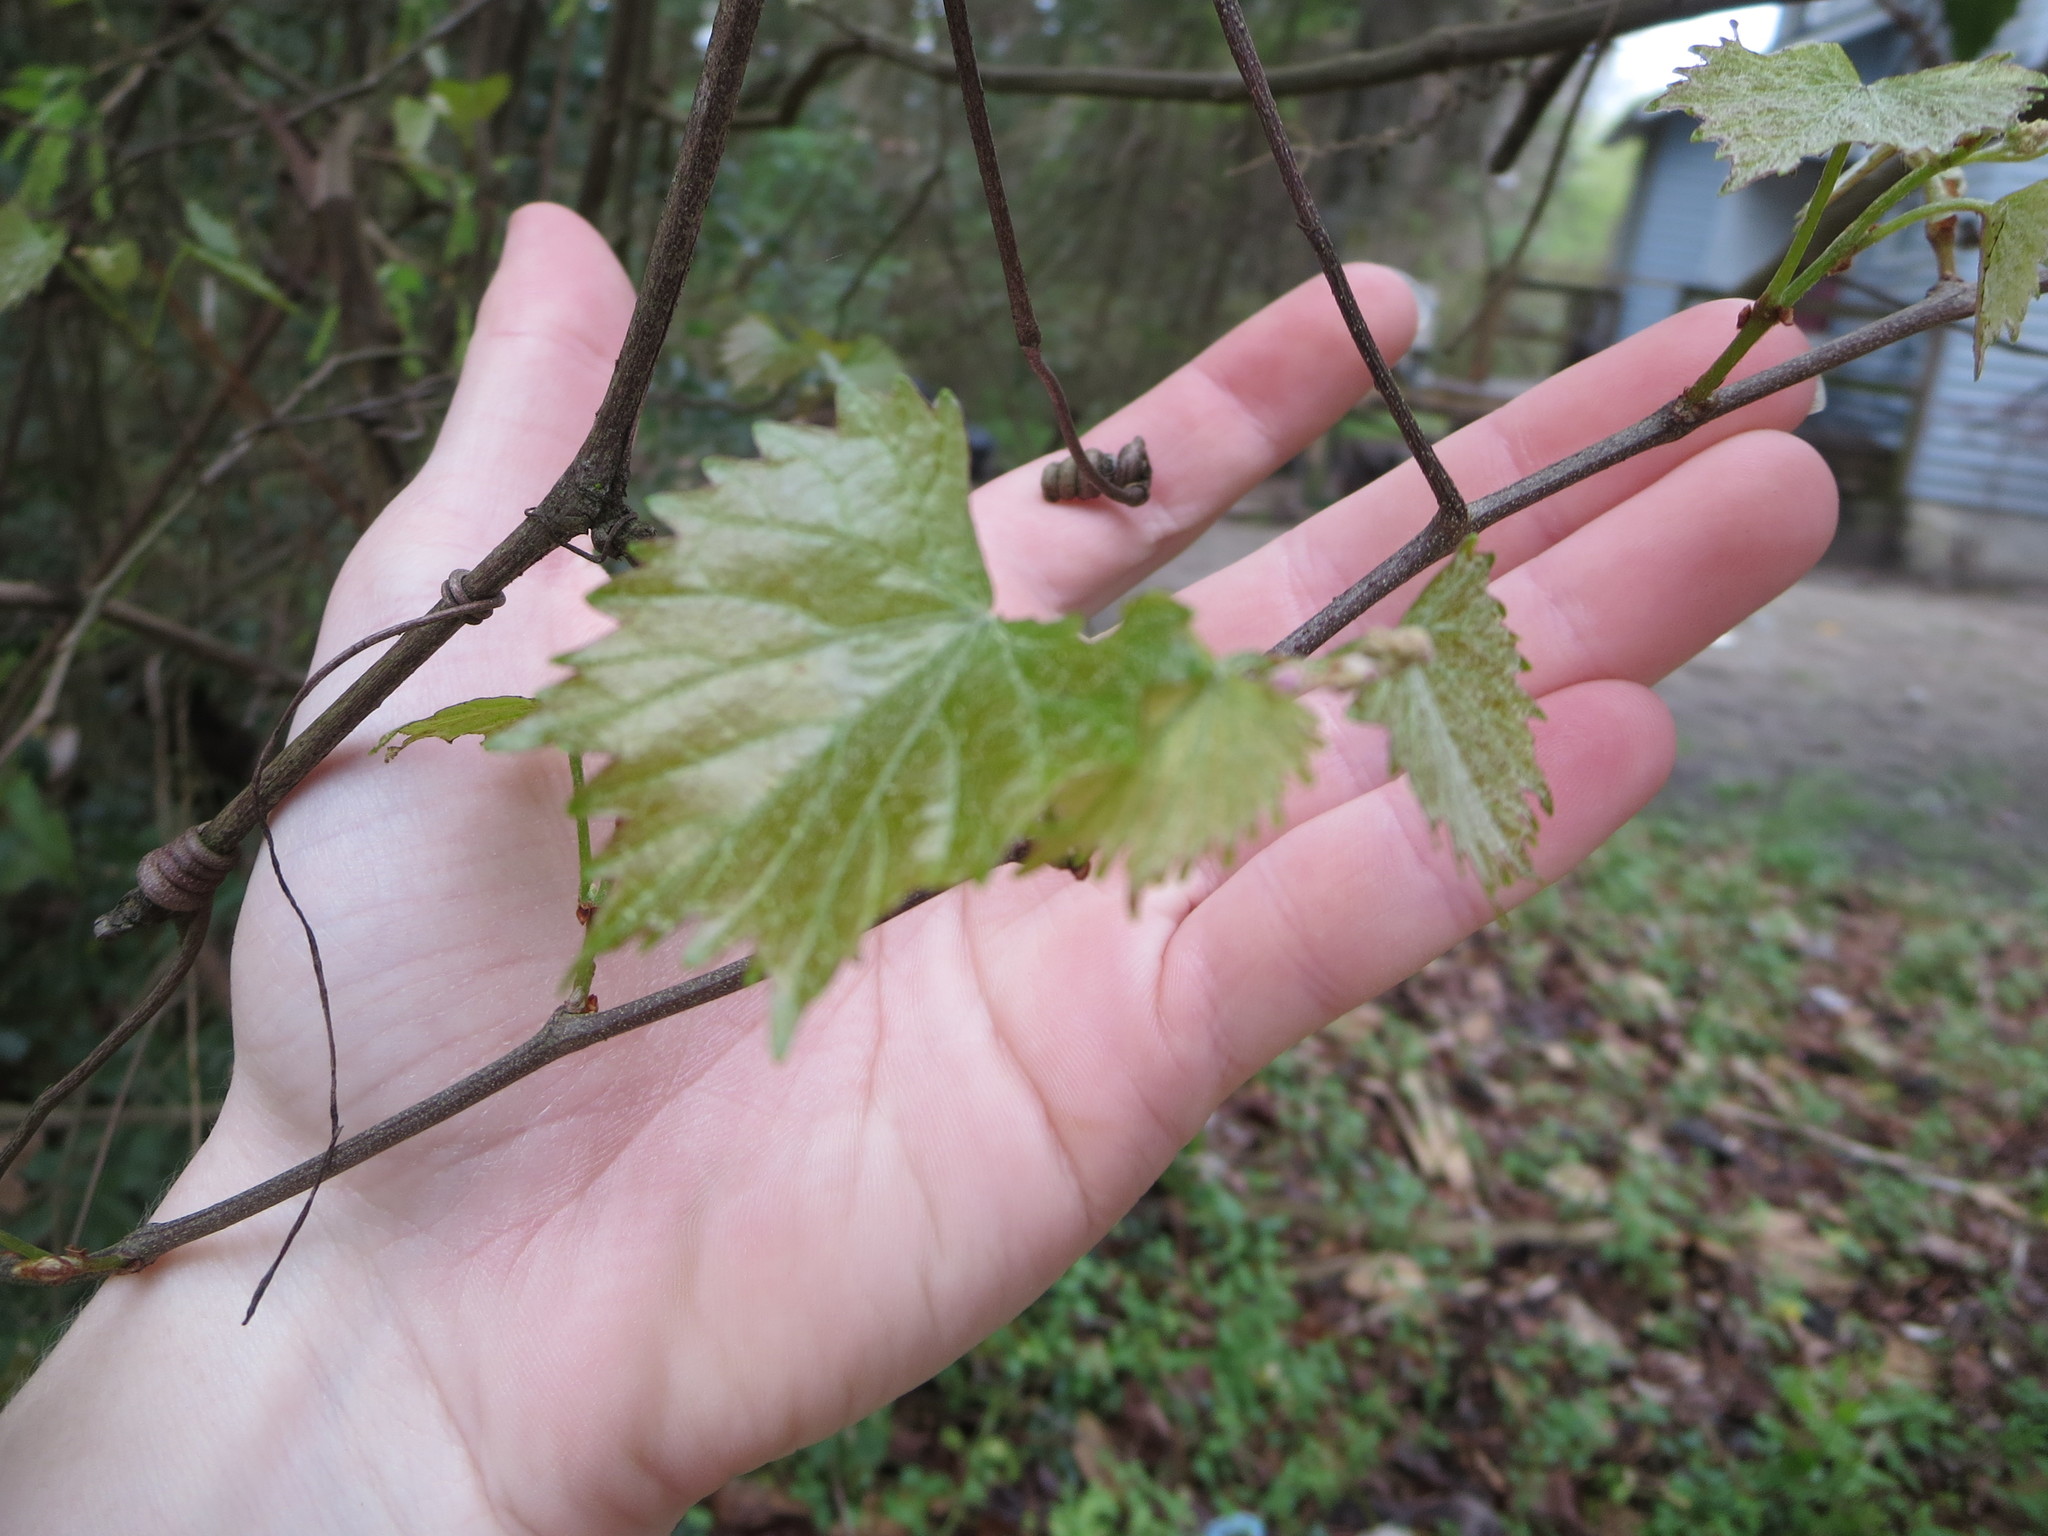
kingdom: Plantae
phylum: Tracheophyta
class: Magnoliopsida
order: Vitales
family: Vitaceae
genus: Vitis
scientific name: Vitis rotundifolia
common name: Muscadine grape
